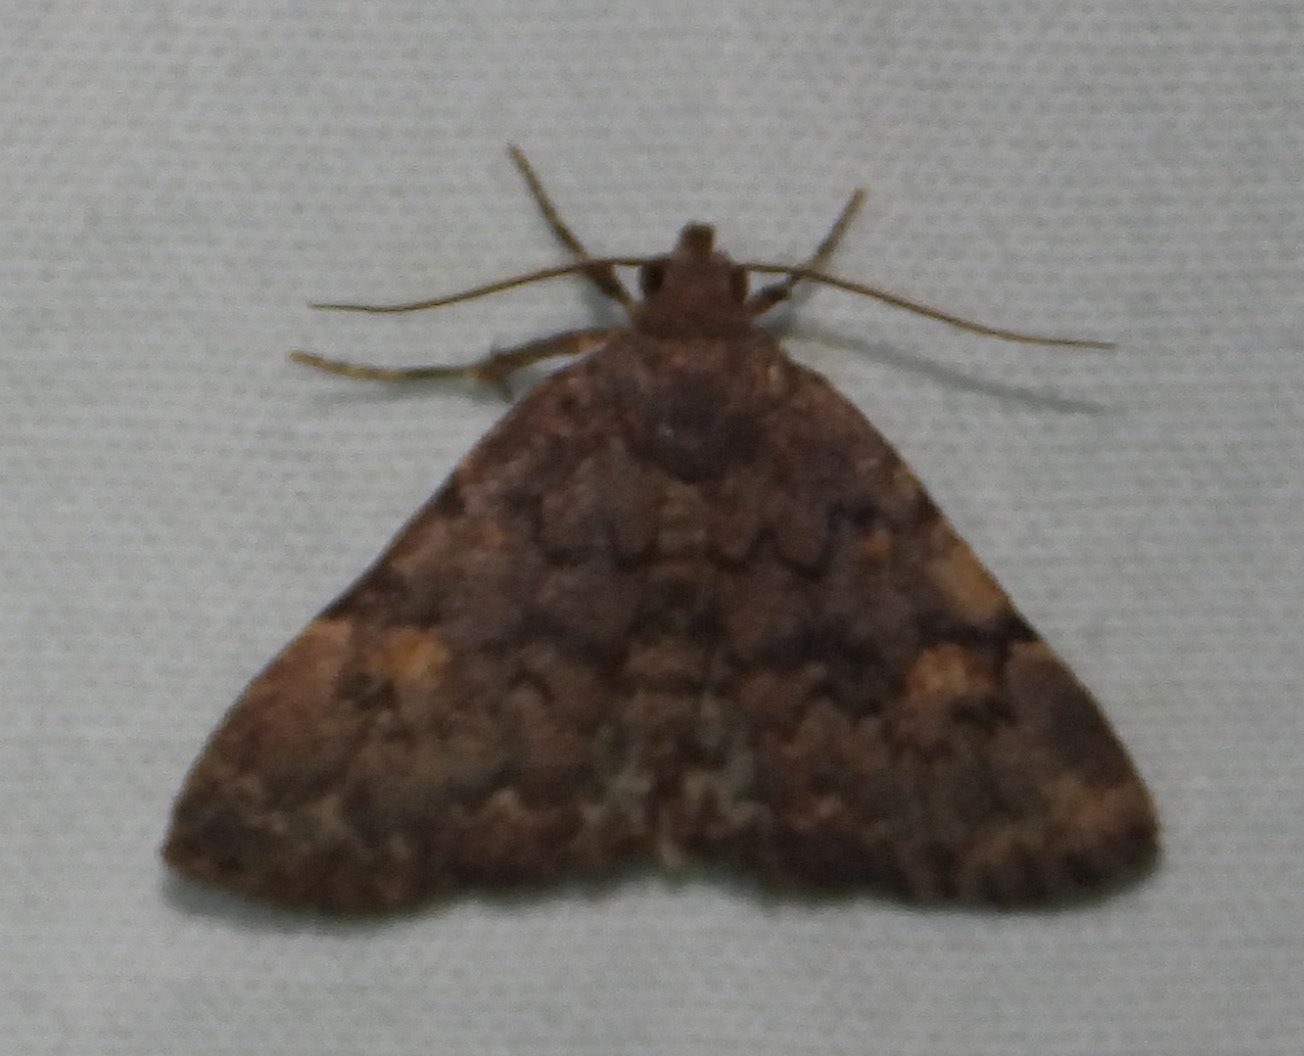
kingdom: Animalia
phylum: Arthropoda
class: Insecta
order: Lepidoptera
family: Erebidae
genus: Idia
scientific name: Idia aemula
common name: Common idia moth
